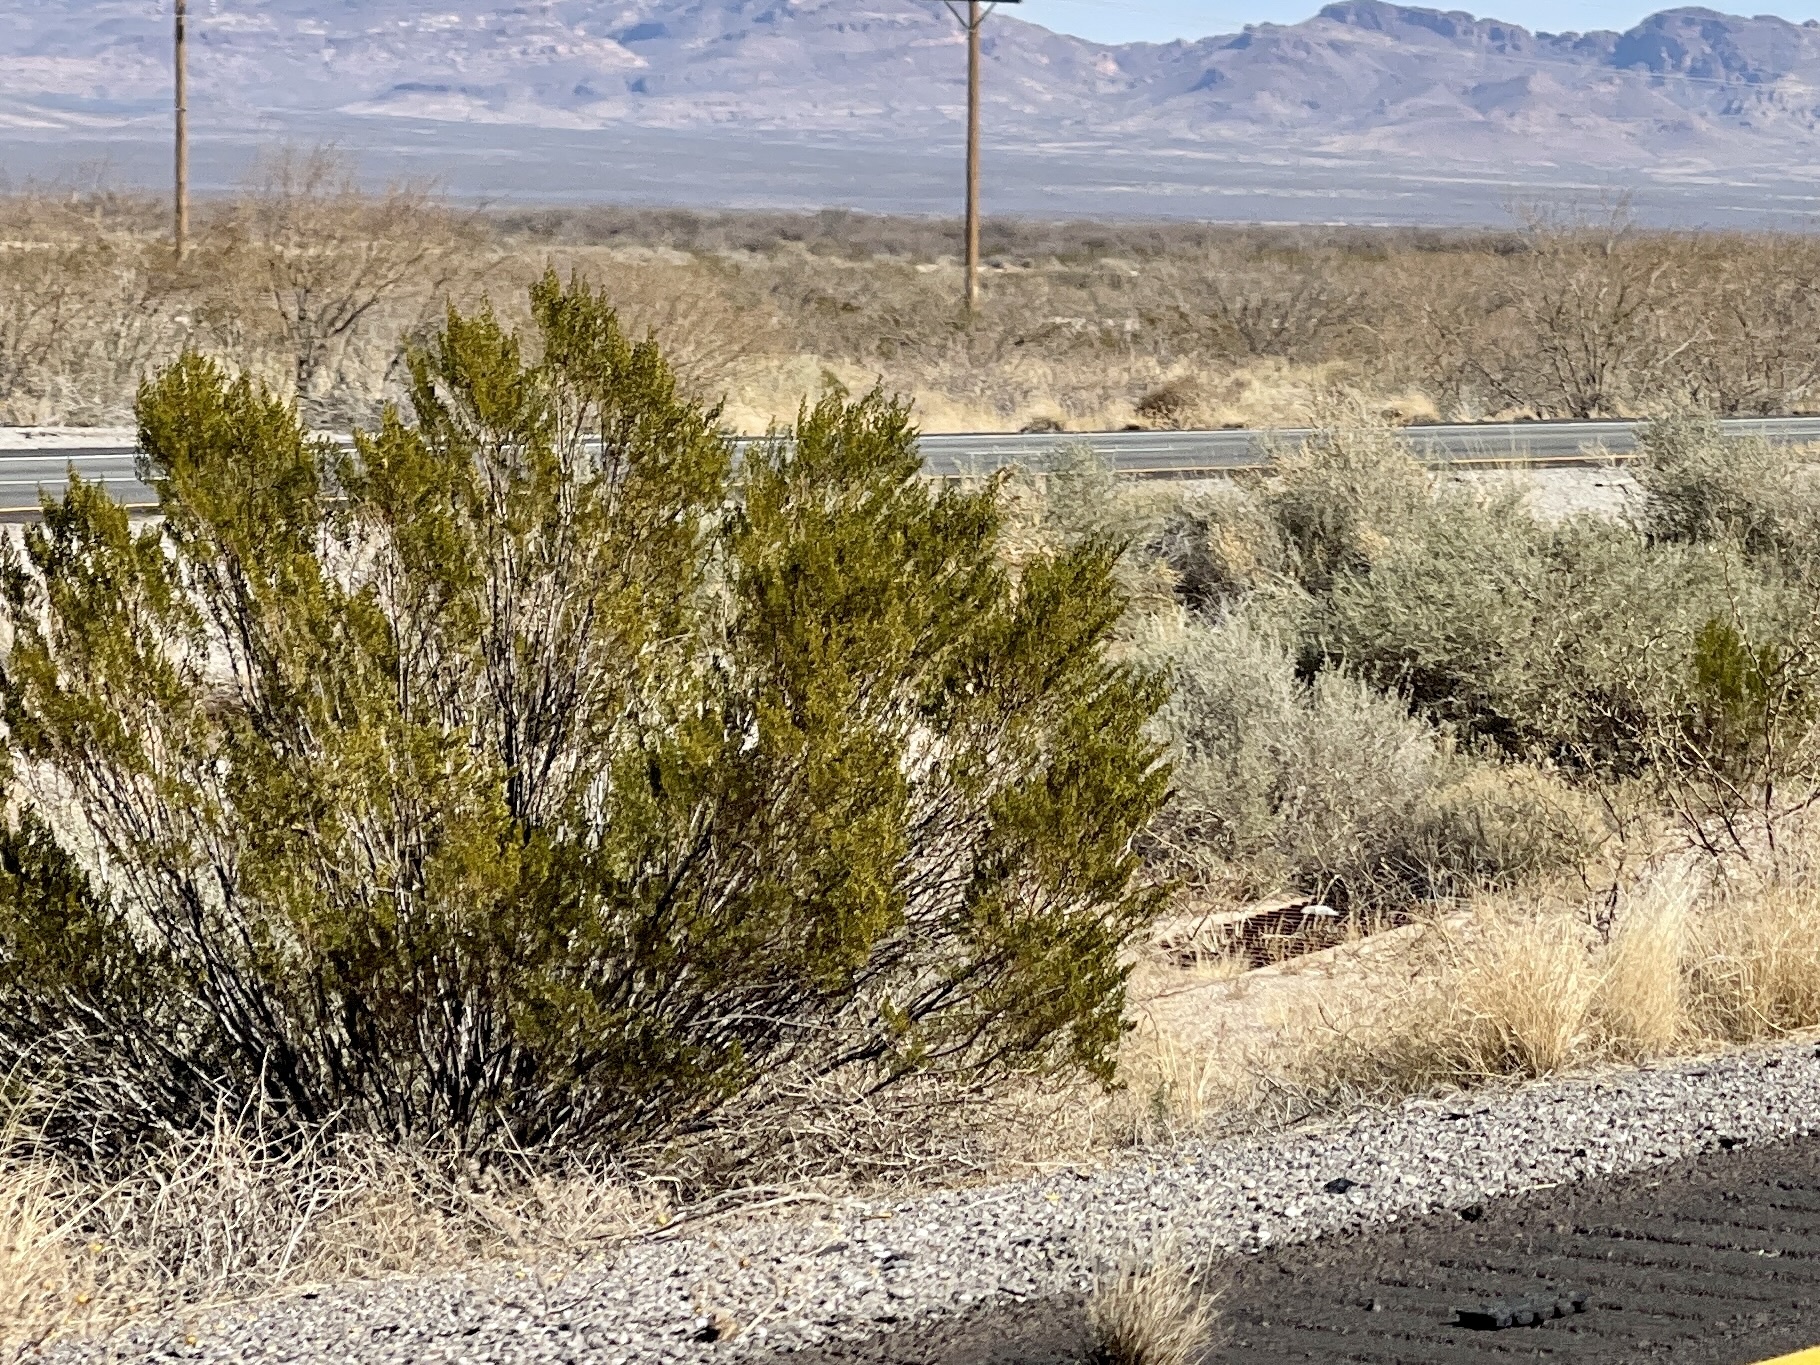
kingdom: Plantae
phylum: Tracheophyta
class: Magnoliopsida
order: Zygophyllales
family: Zygophyllaceae
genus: Larrea
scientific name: Larrea tridentata
